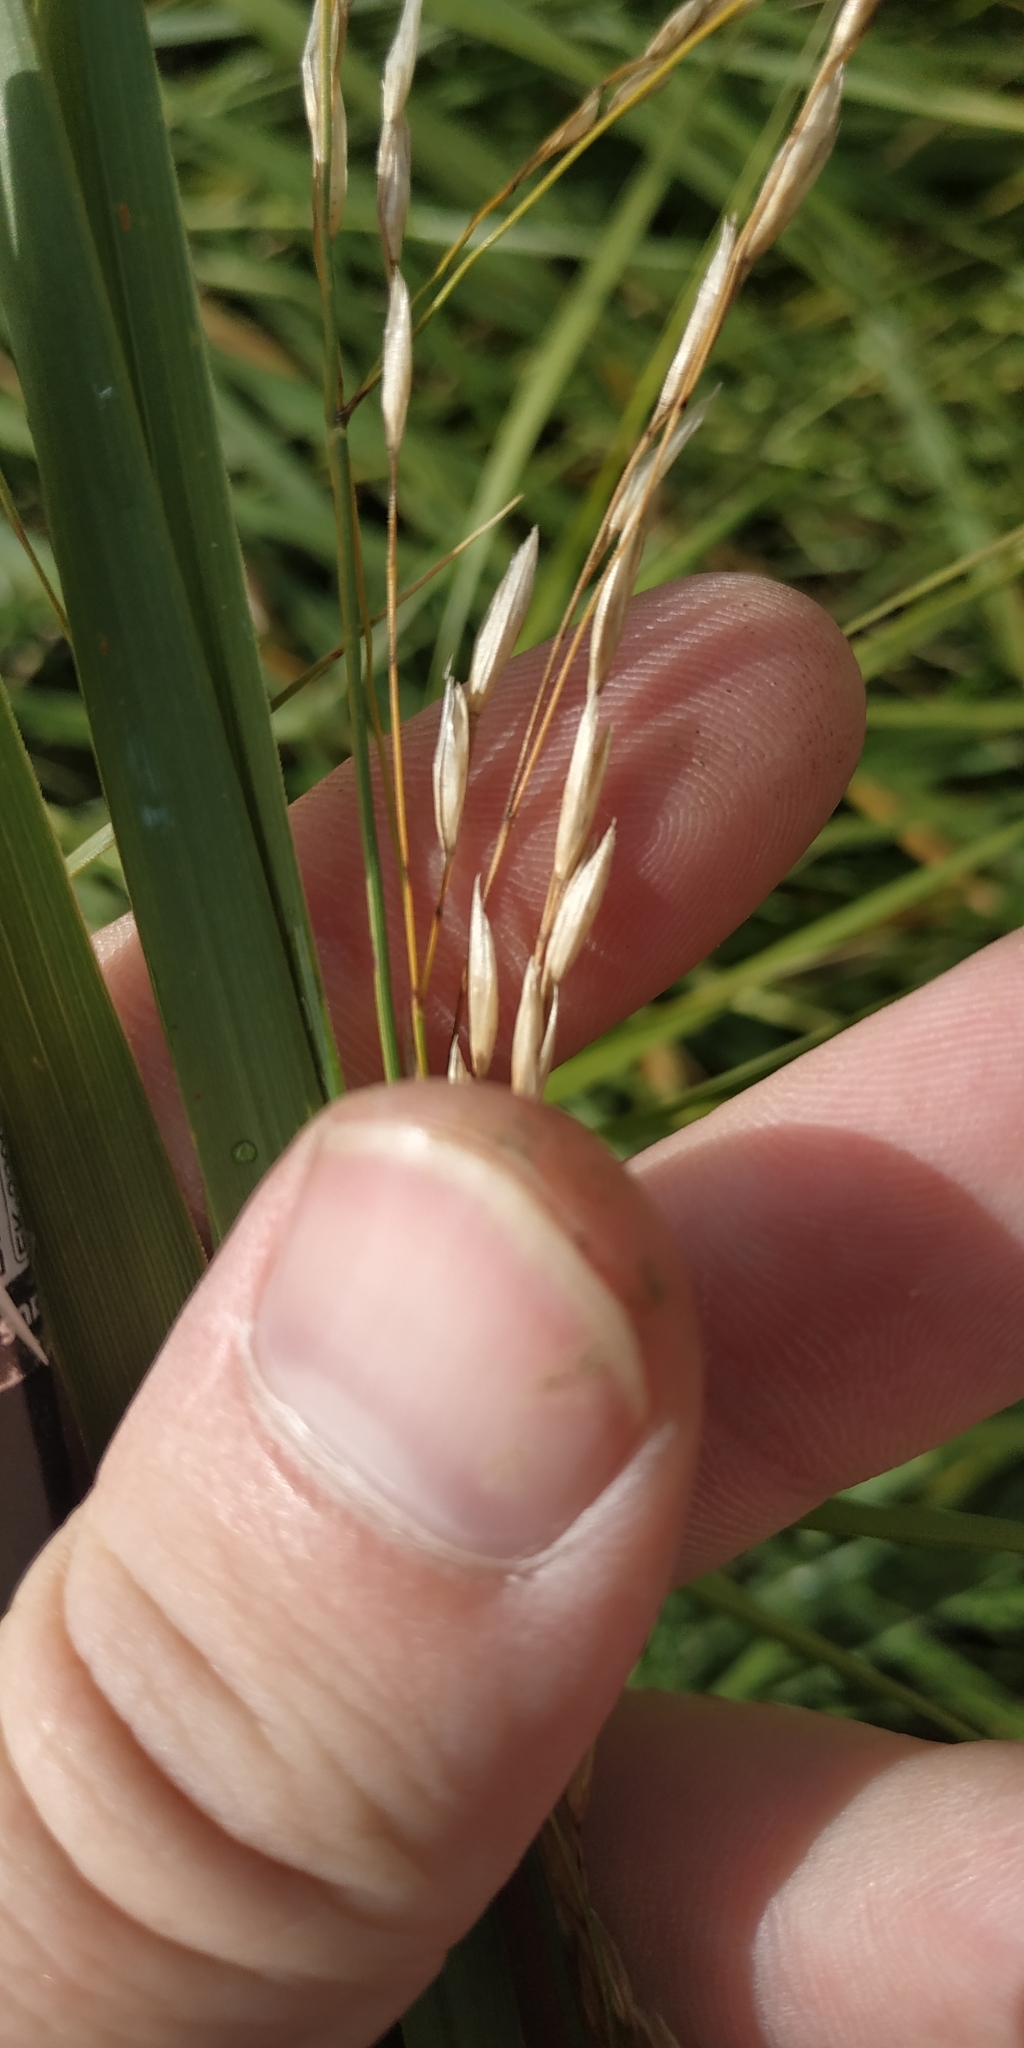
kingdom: Plantae
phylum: Tracheophyta
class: Liliopsida
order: Poales
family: Poaceae
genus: Scolochloa
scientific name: Scolochloa festucacea
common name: Common rivergrass
